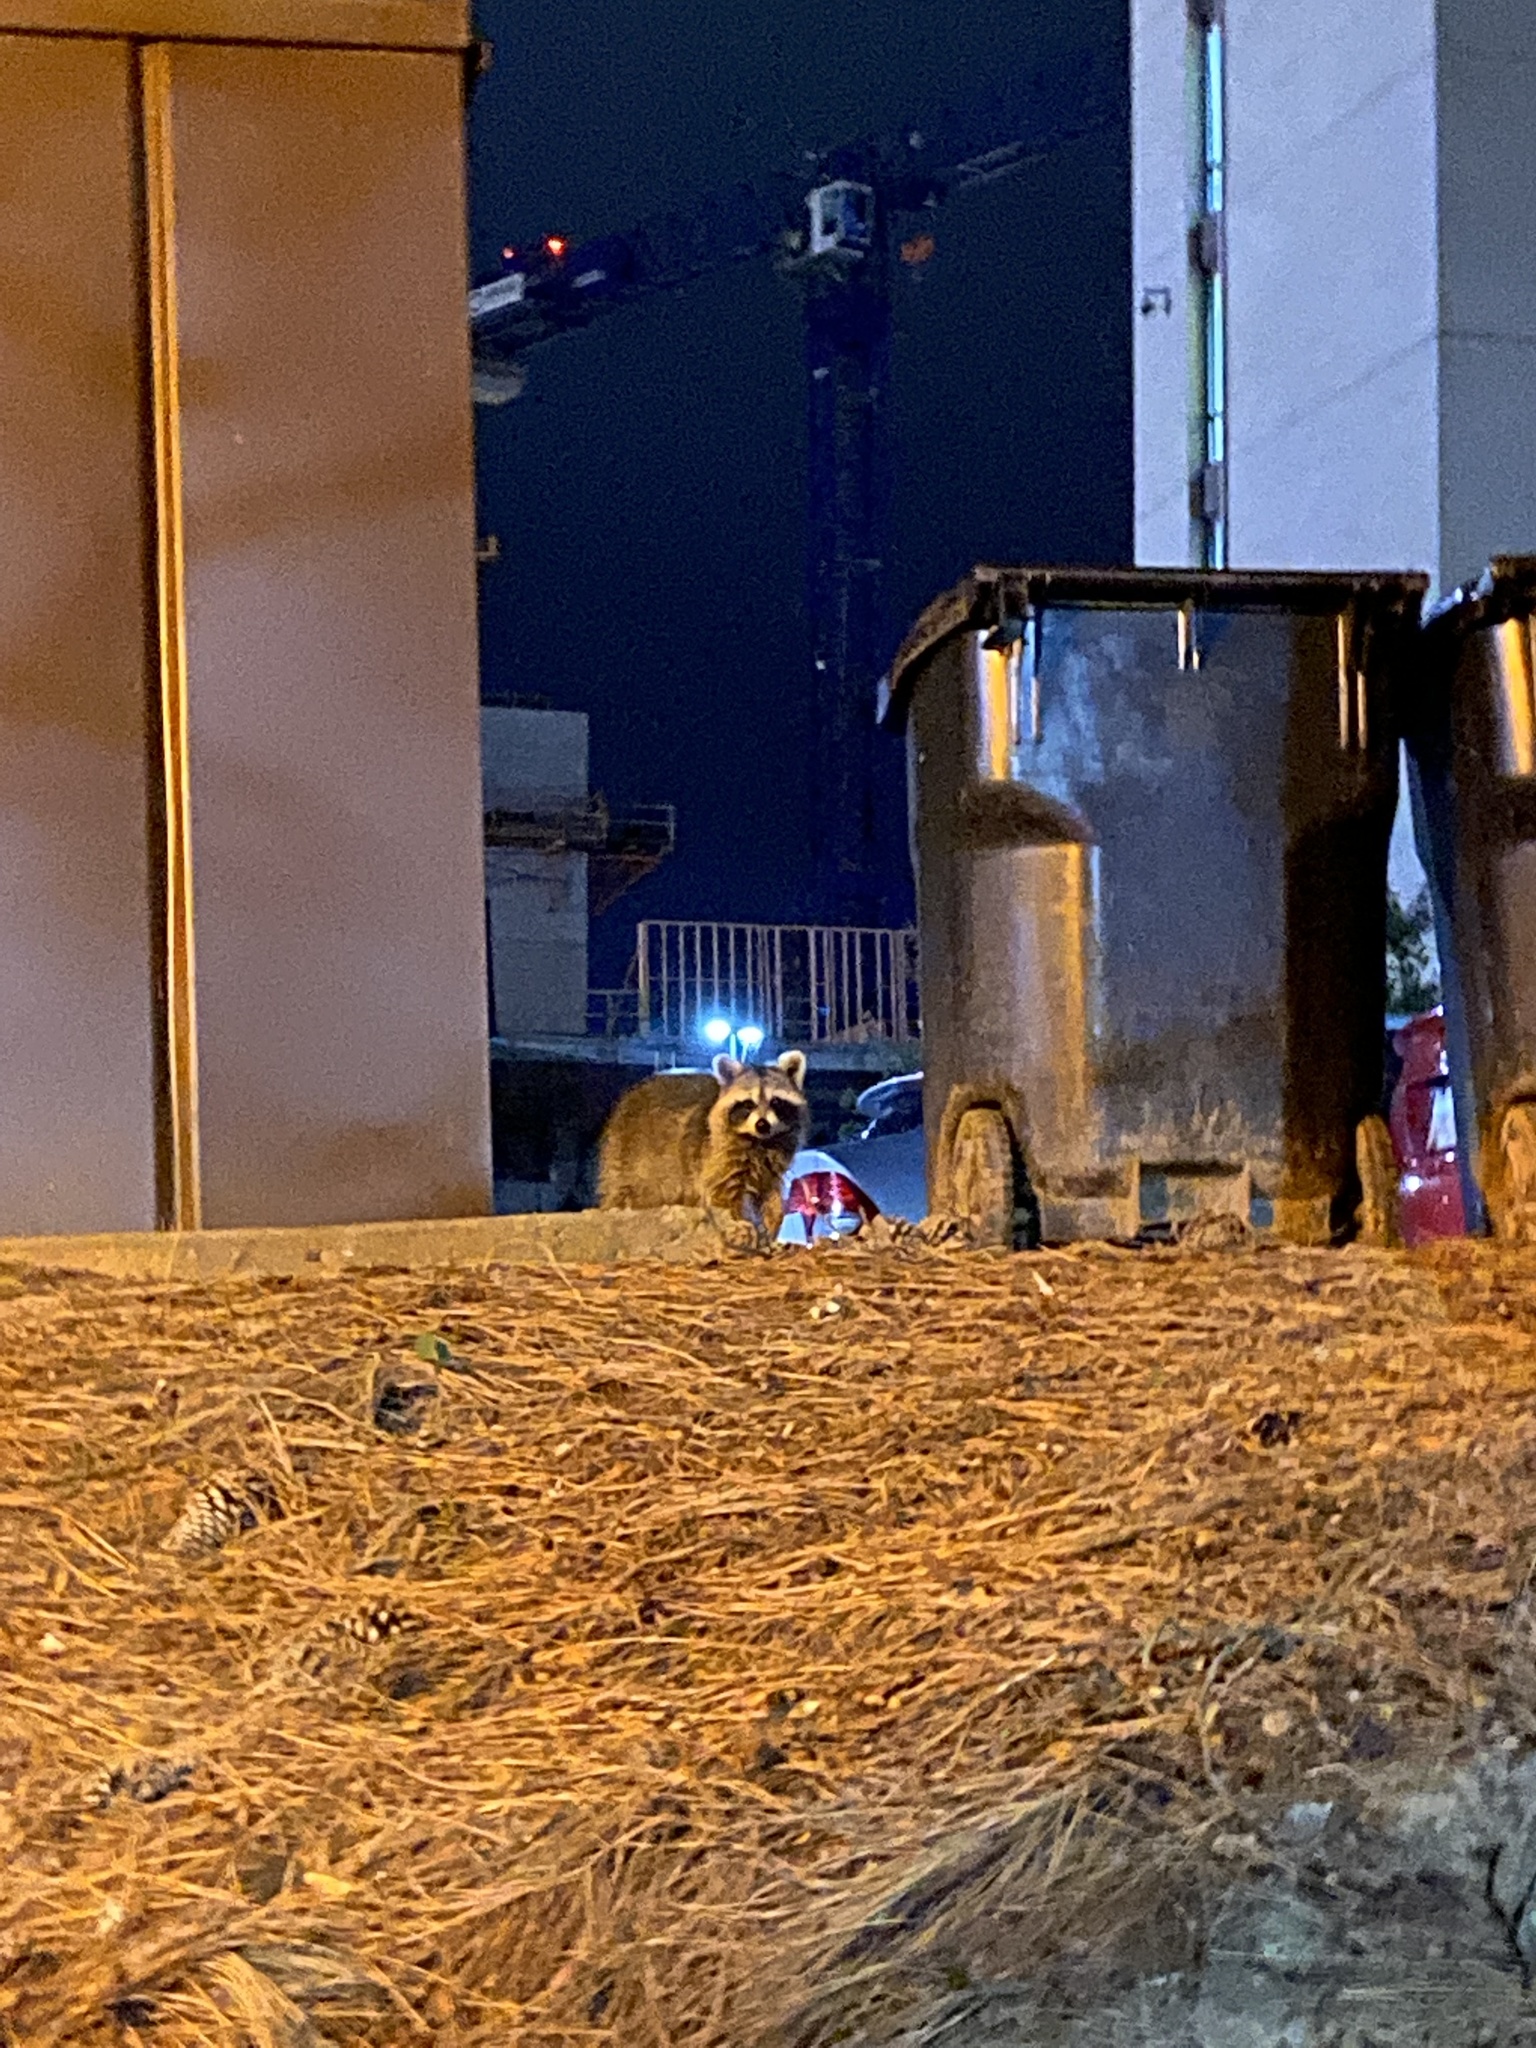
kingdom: Animalia
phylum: Chordata
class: Mammalia
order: Carnivora
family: Procyonidae
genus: Procyon
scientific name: Procyon lotor
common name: Raccoon
